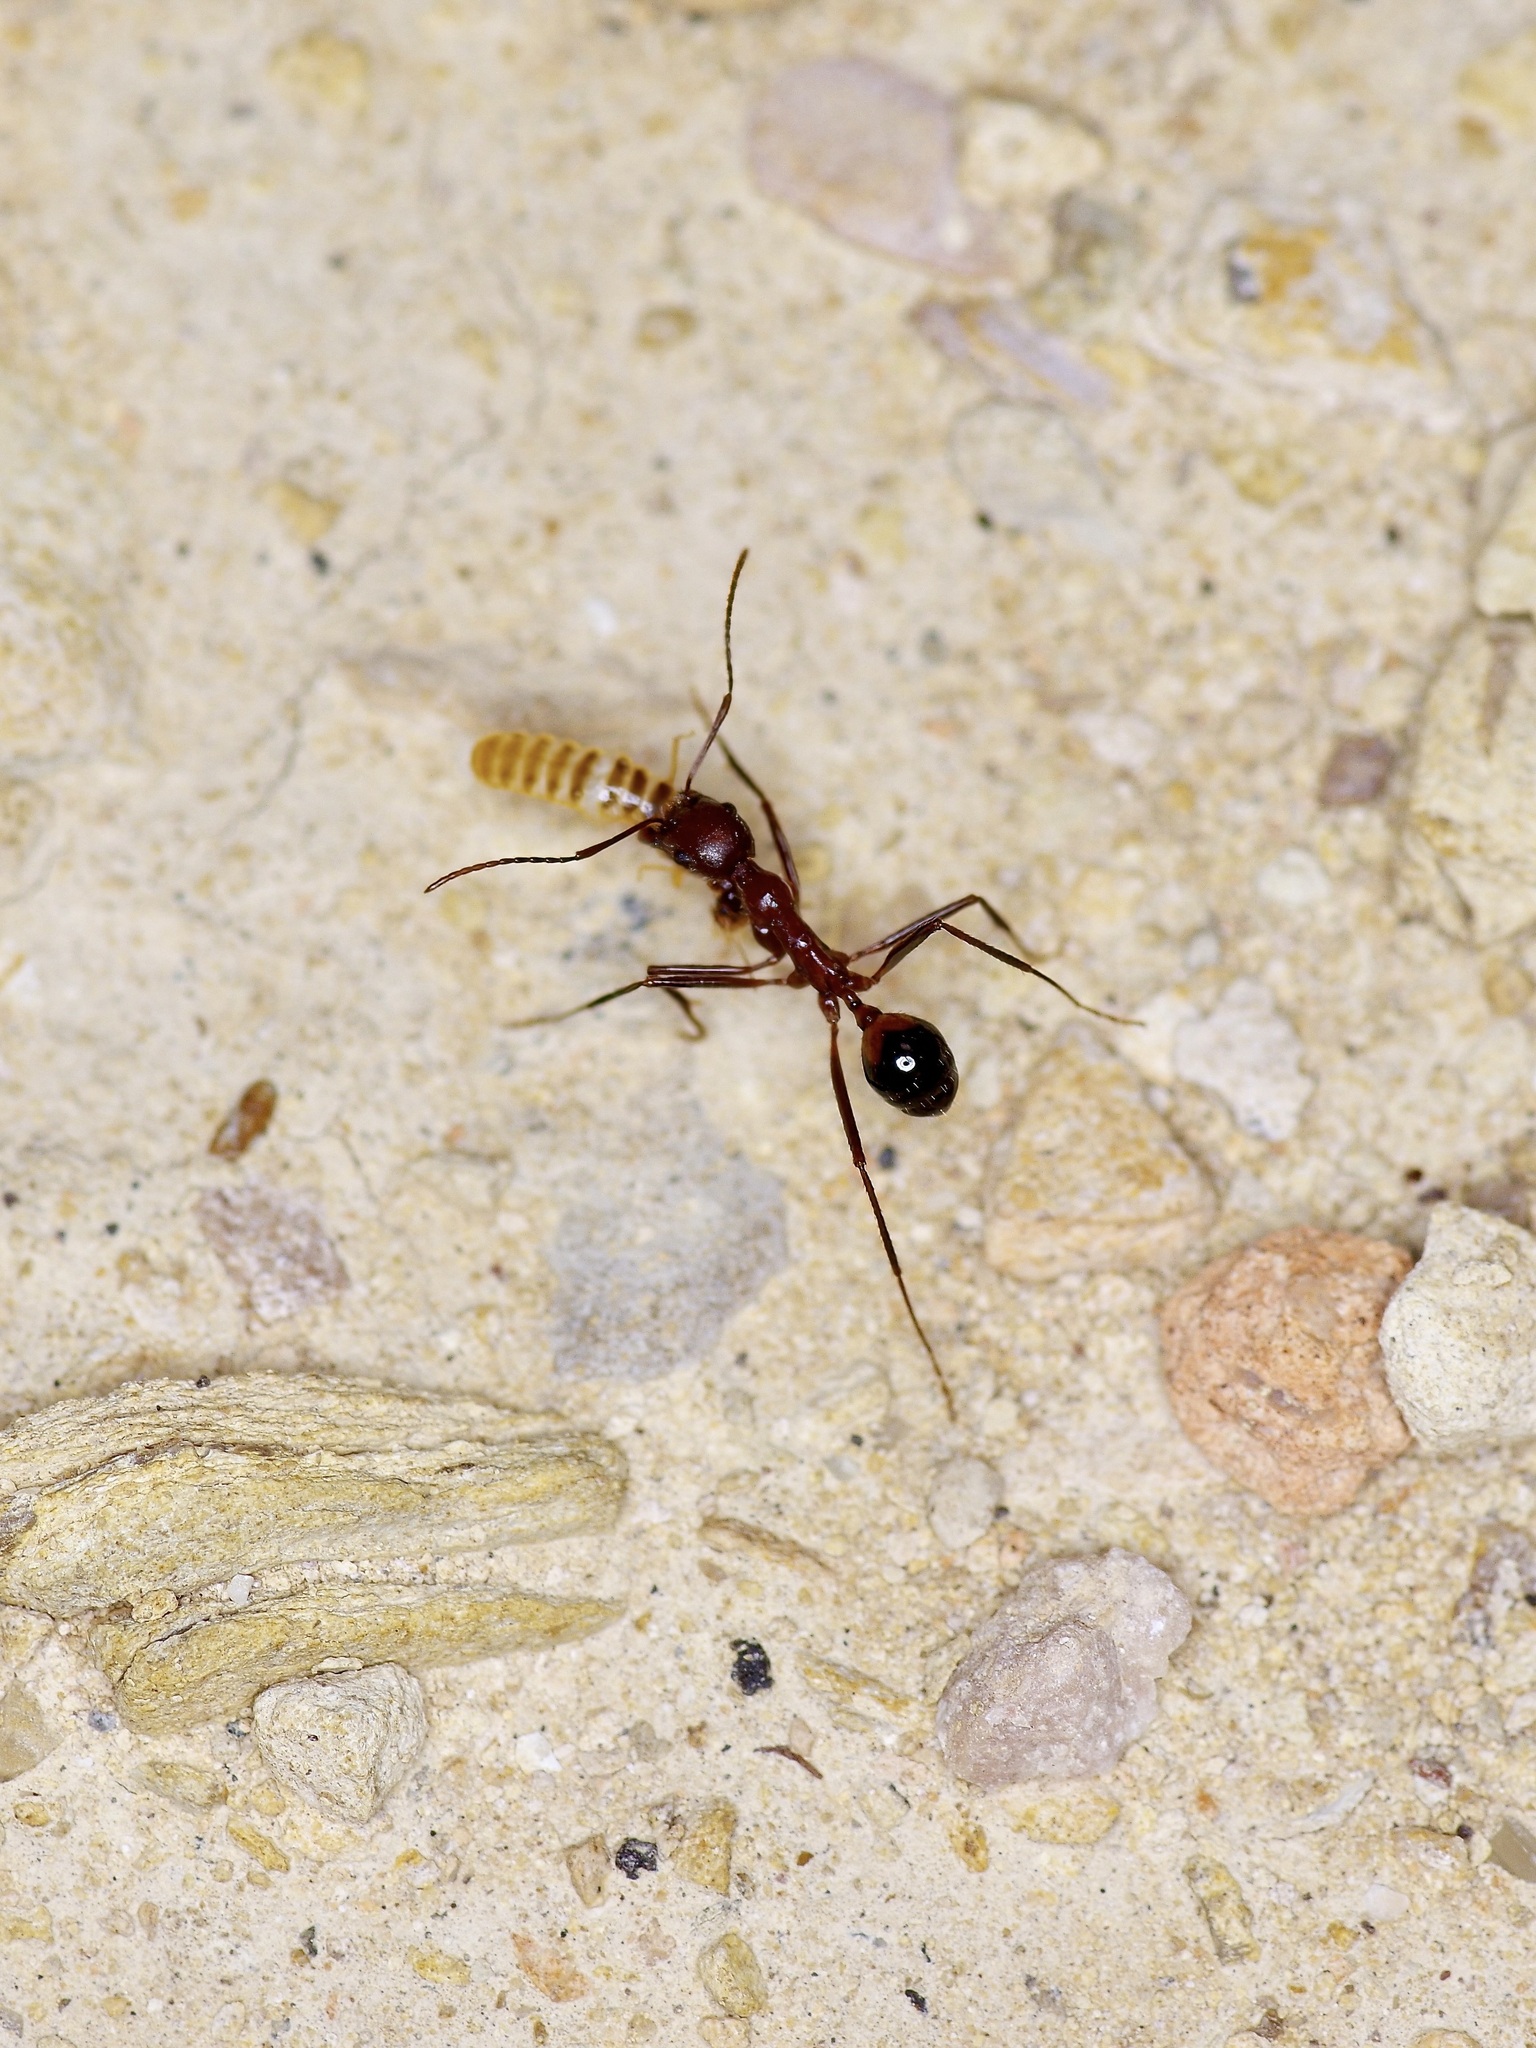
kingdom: Animalia
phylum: Arthropoda
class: Insecta
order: Hymenoptera
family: Formicidae
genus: Novomessor
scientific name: Novomessor cockerelli
